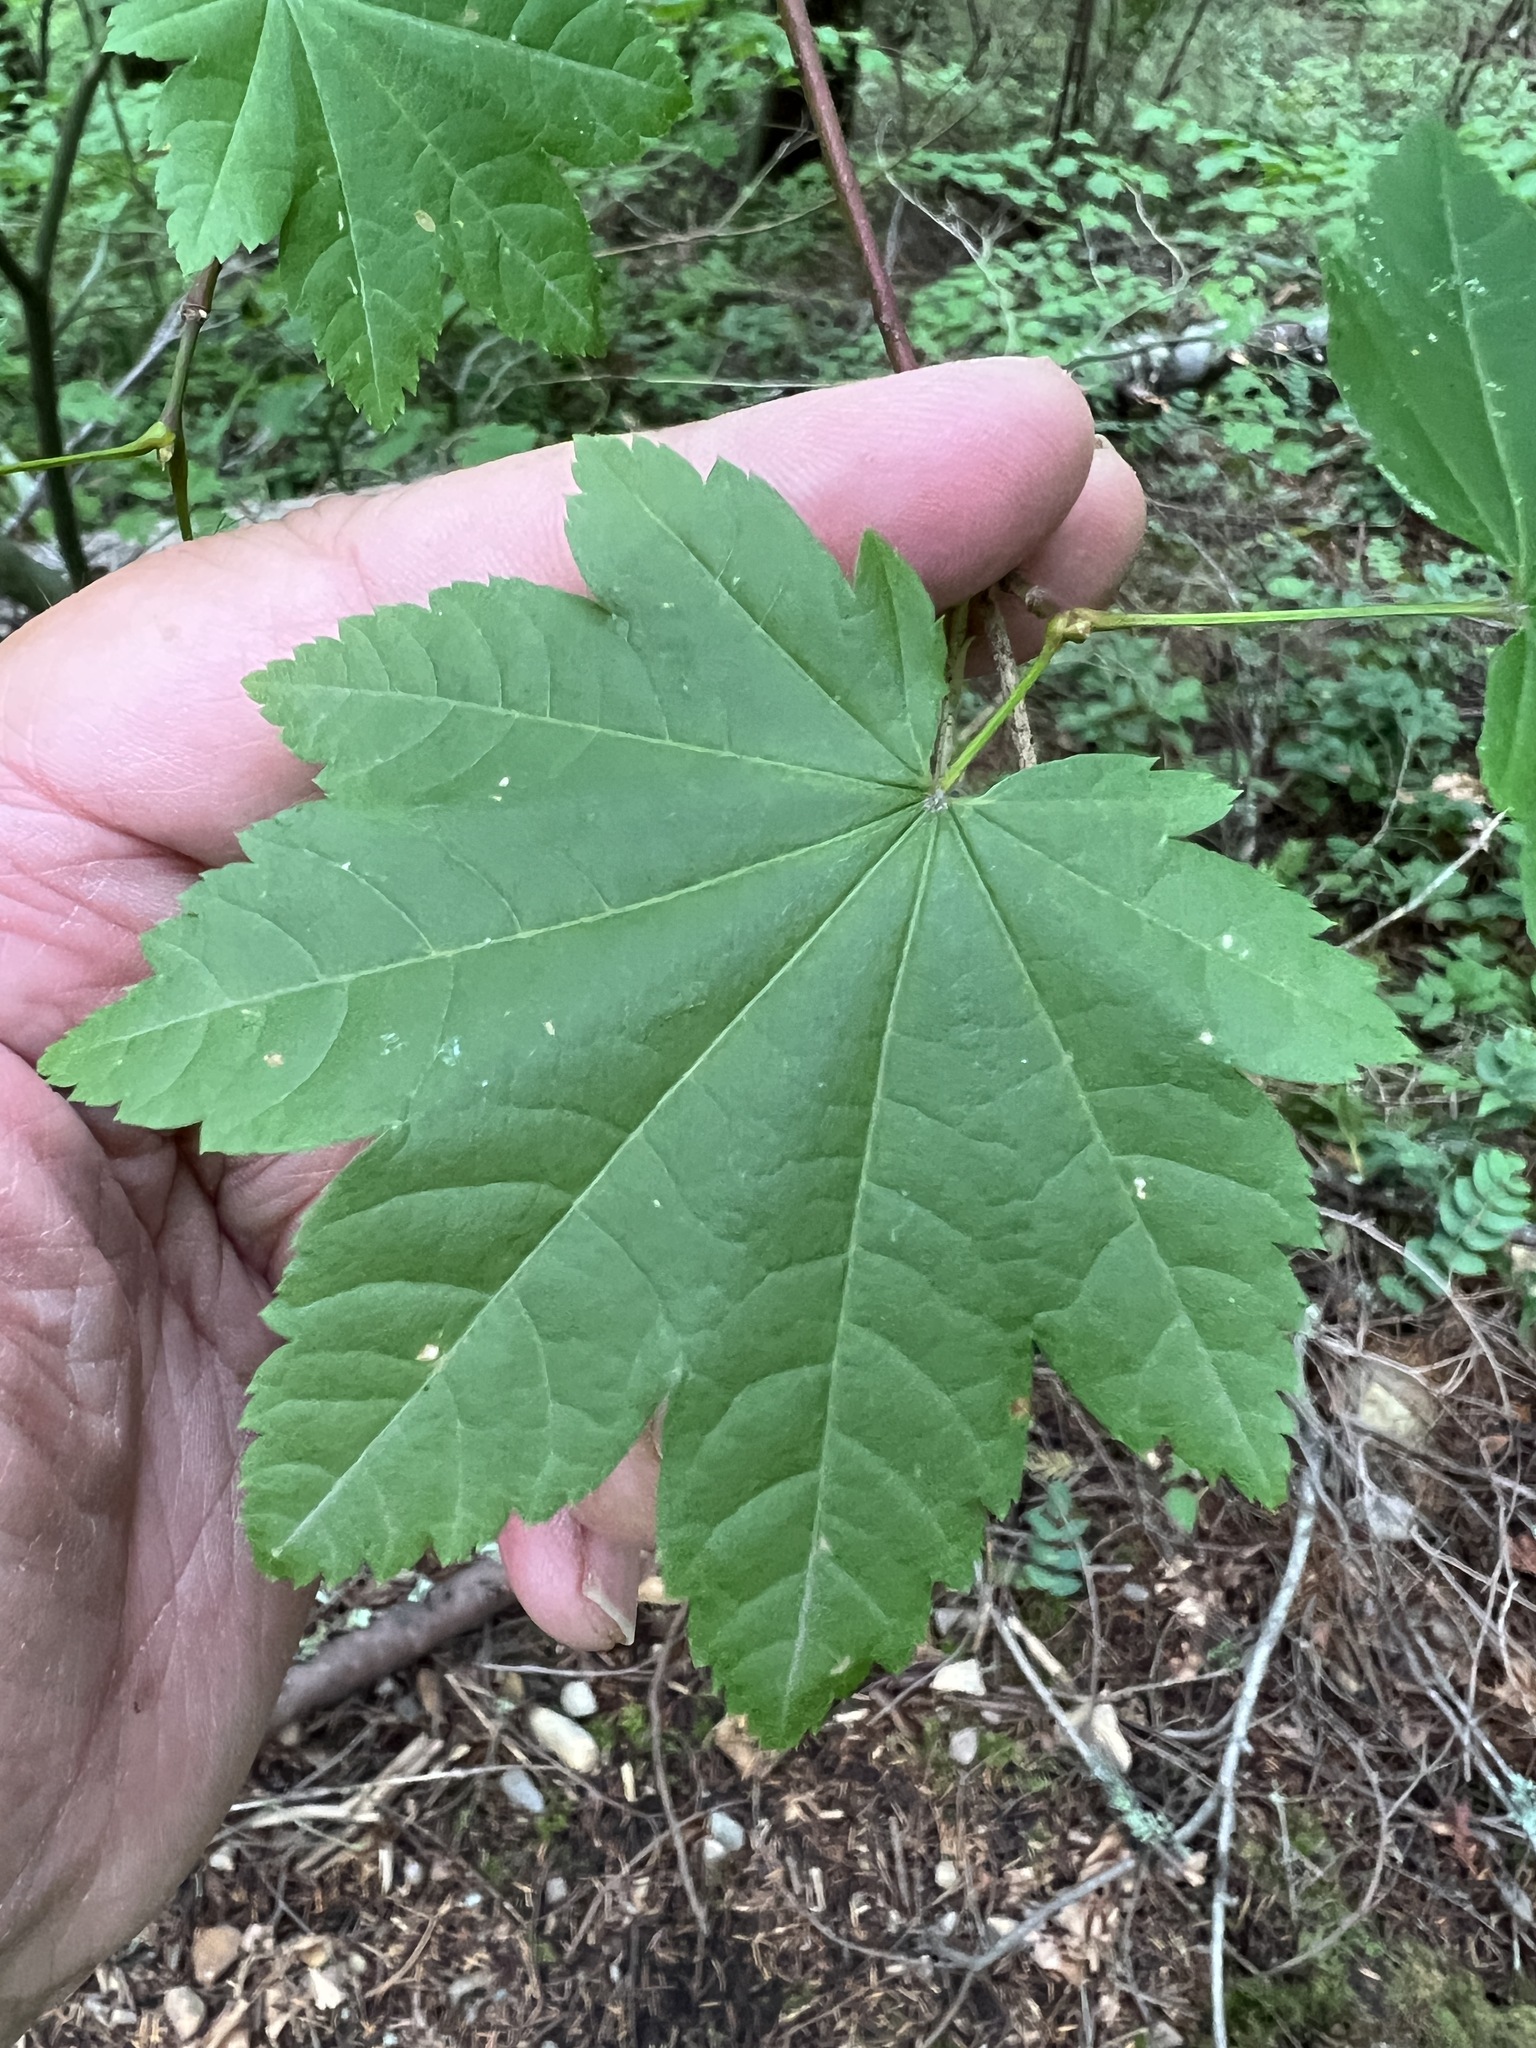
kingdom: Plantae
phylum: Tracheophyta
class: Magnoliopsida
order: Sapindales
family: Sapindaceae
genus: Acer
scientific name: Acer circinatum
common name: Vine maple
